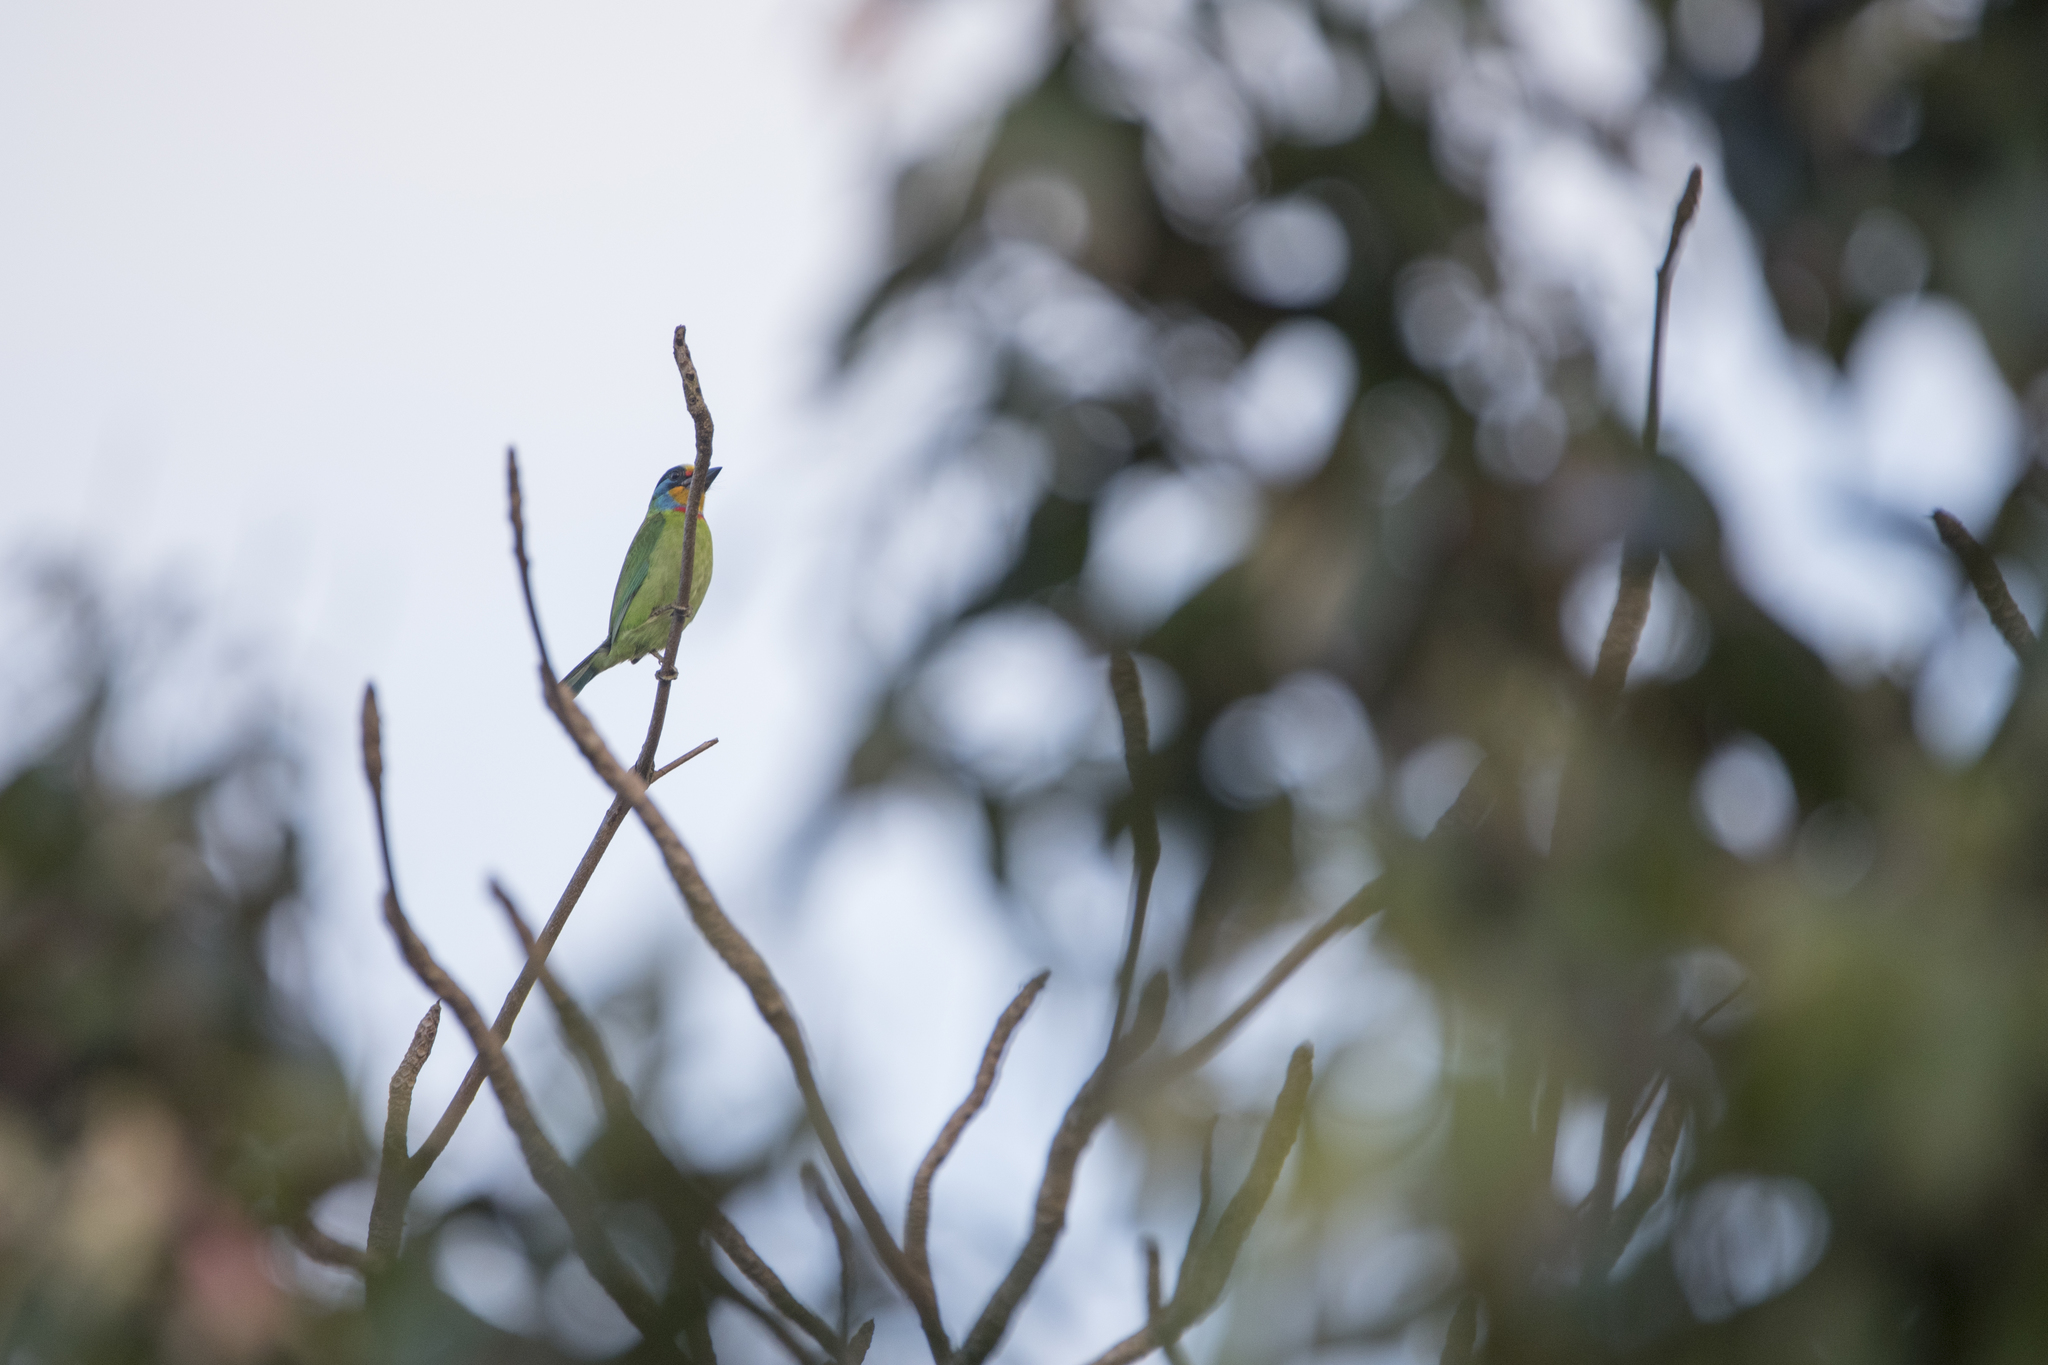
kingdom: Animalia
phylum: Chordata
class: Aves
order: Piciformes
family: Megalaimidae
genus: Psilopogon
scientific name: Psilopogon nuchalis
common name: Taiwan barbet
